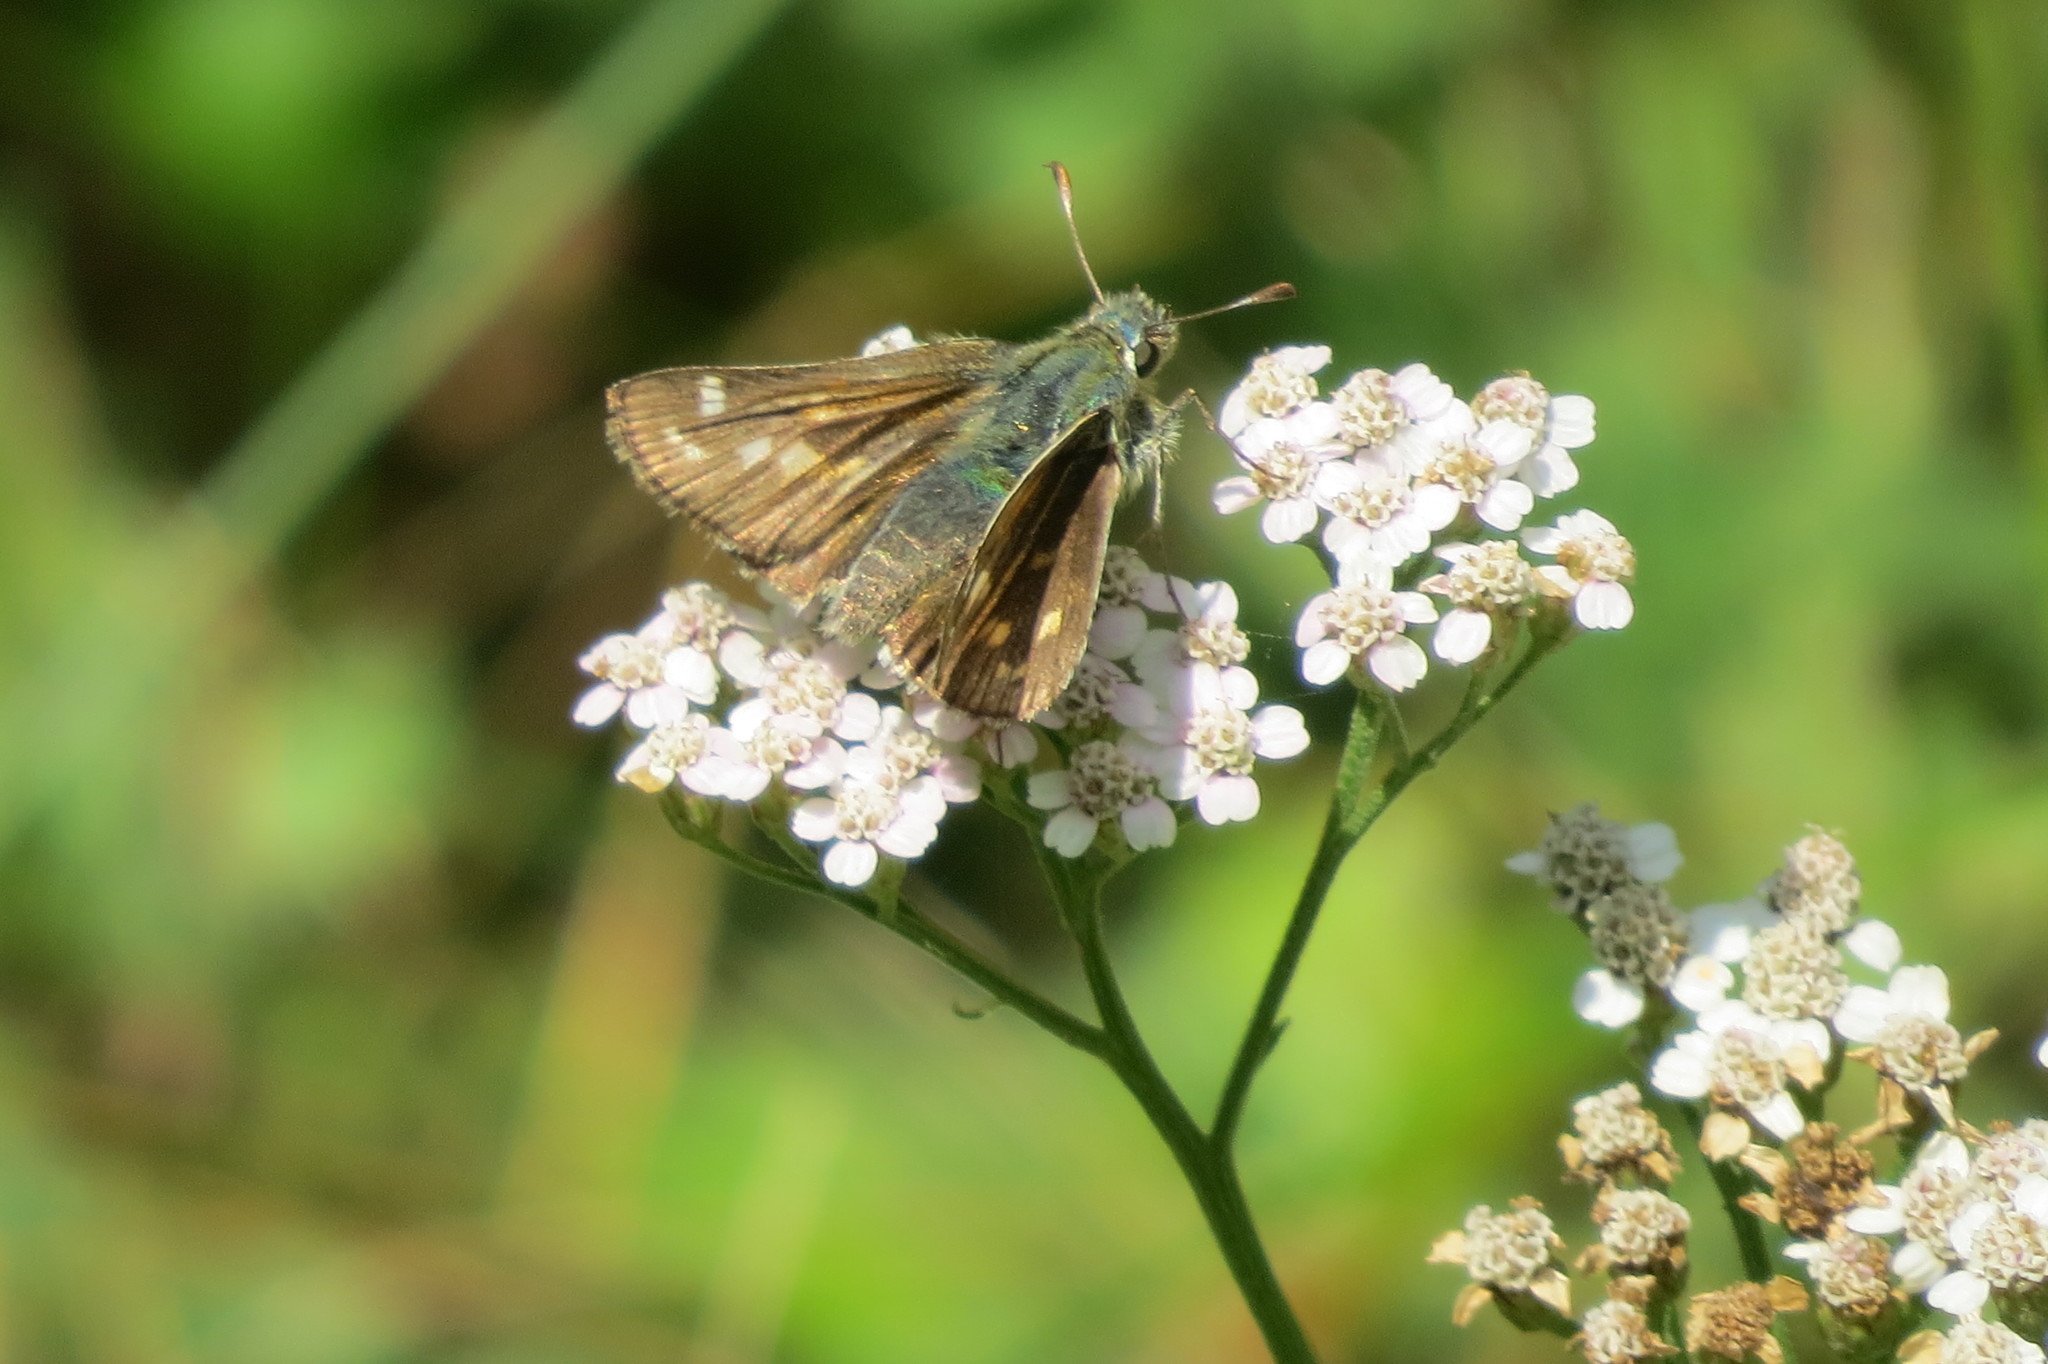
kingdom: Animalia
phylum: Arthropoda
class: Insecta
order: Lepidoptera
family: Hesperiidae
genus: Hesperia
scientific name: Hesperia comma
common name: Common branded skipper
